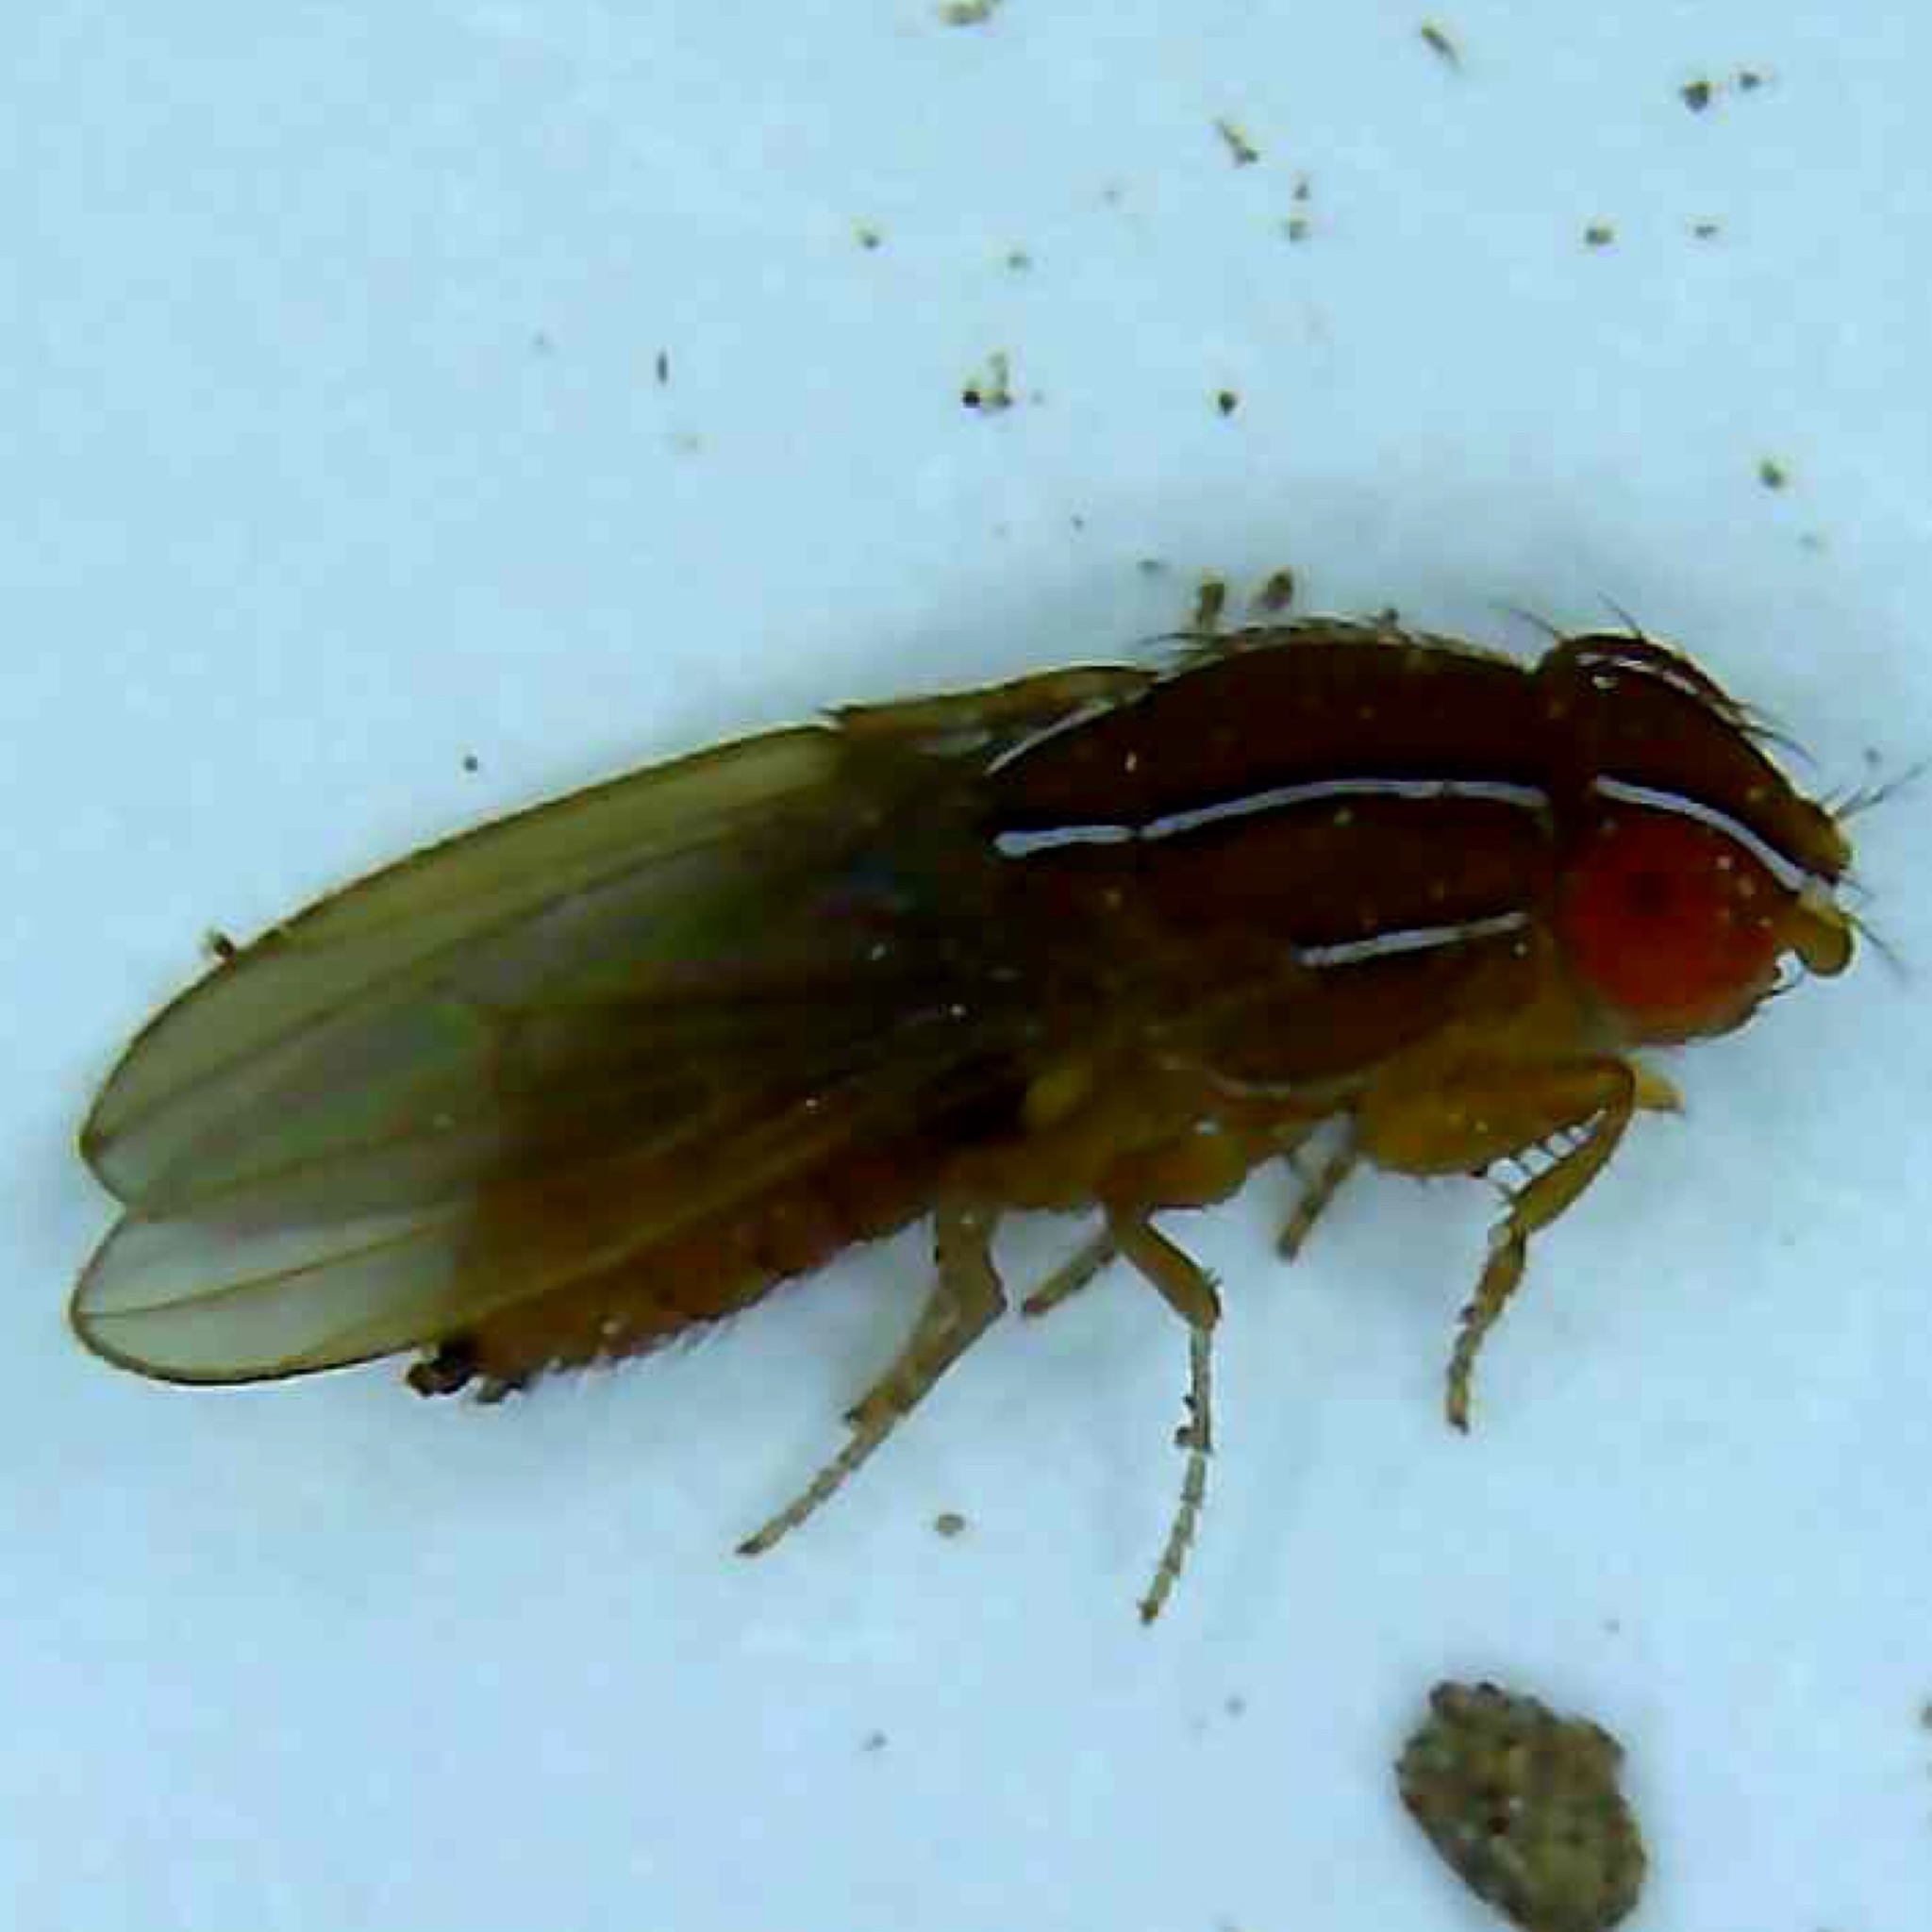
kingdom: Animalia
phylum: Arthropoda
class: Insecta
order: Diptera
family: Drosophilidae
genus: Zaprionus
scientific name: Zaprionus indianus
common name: African fig fly
